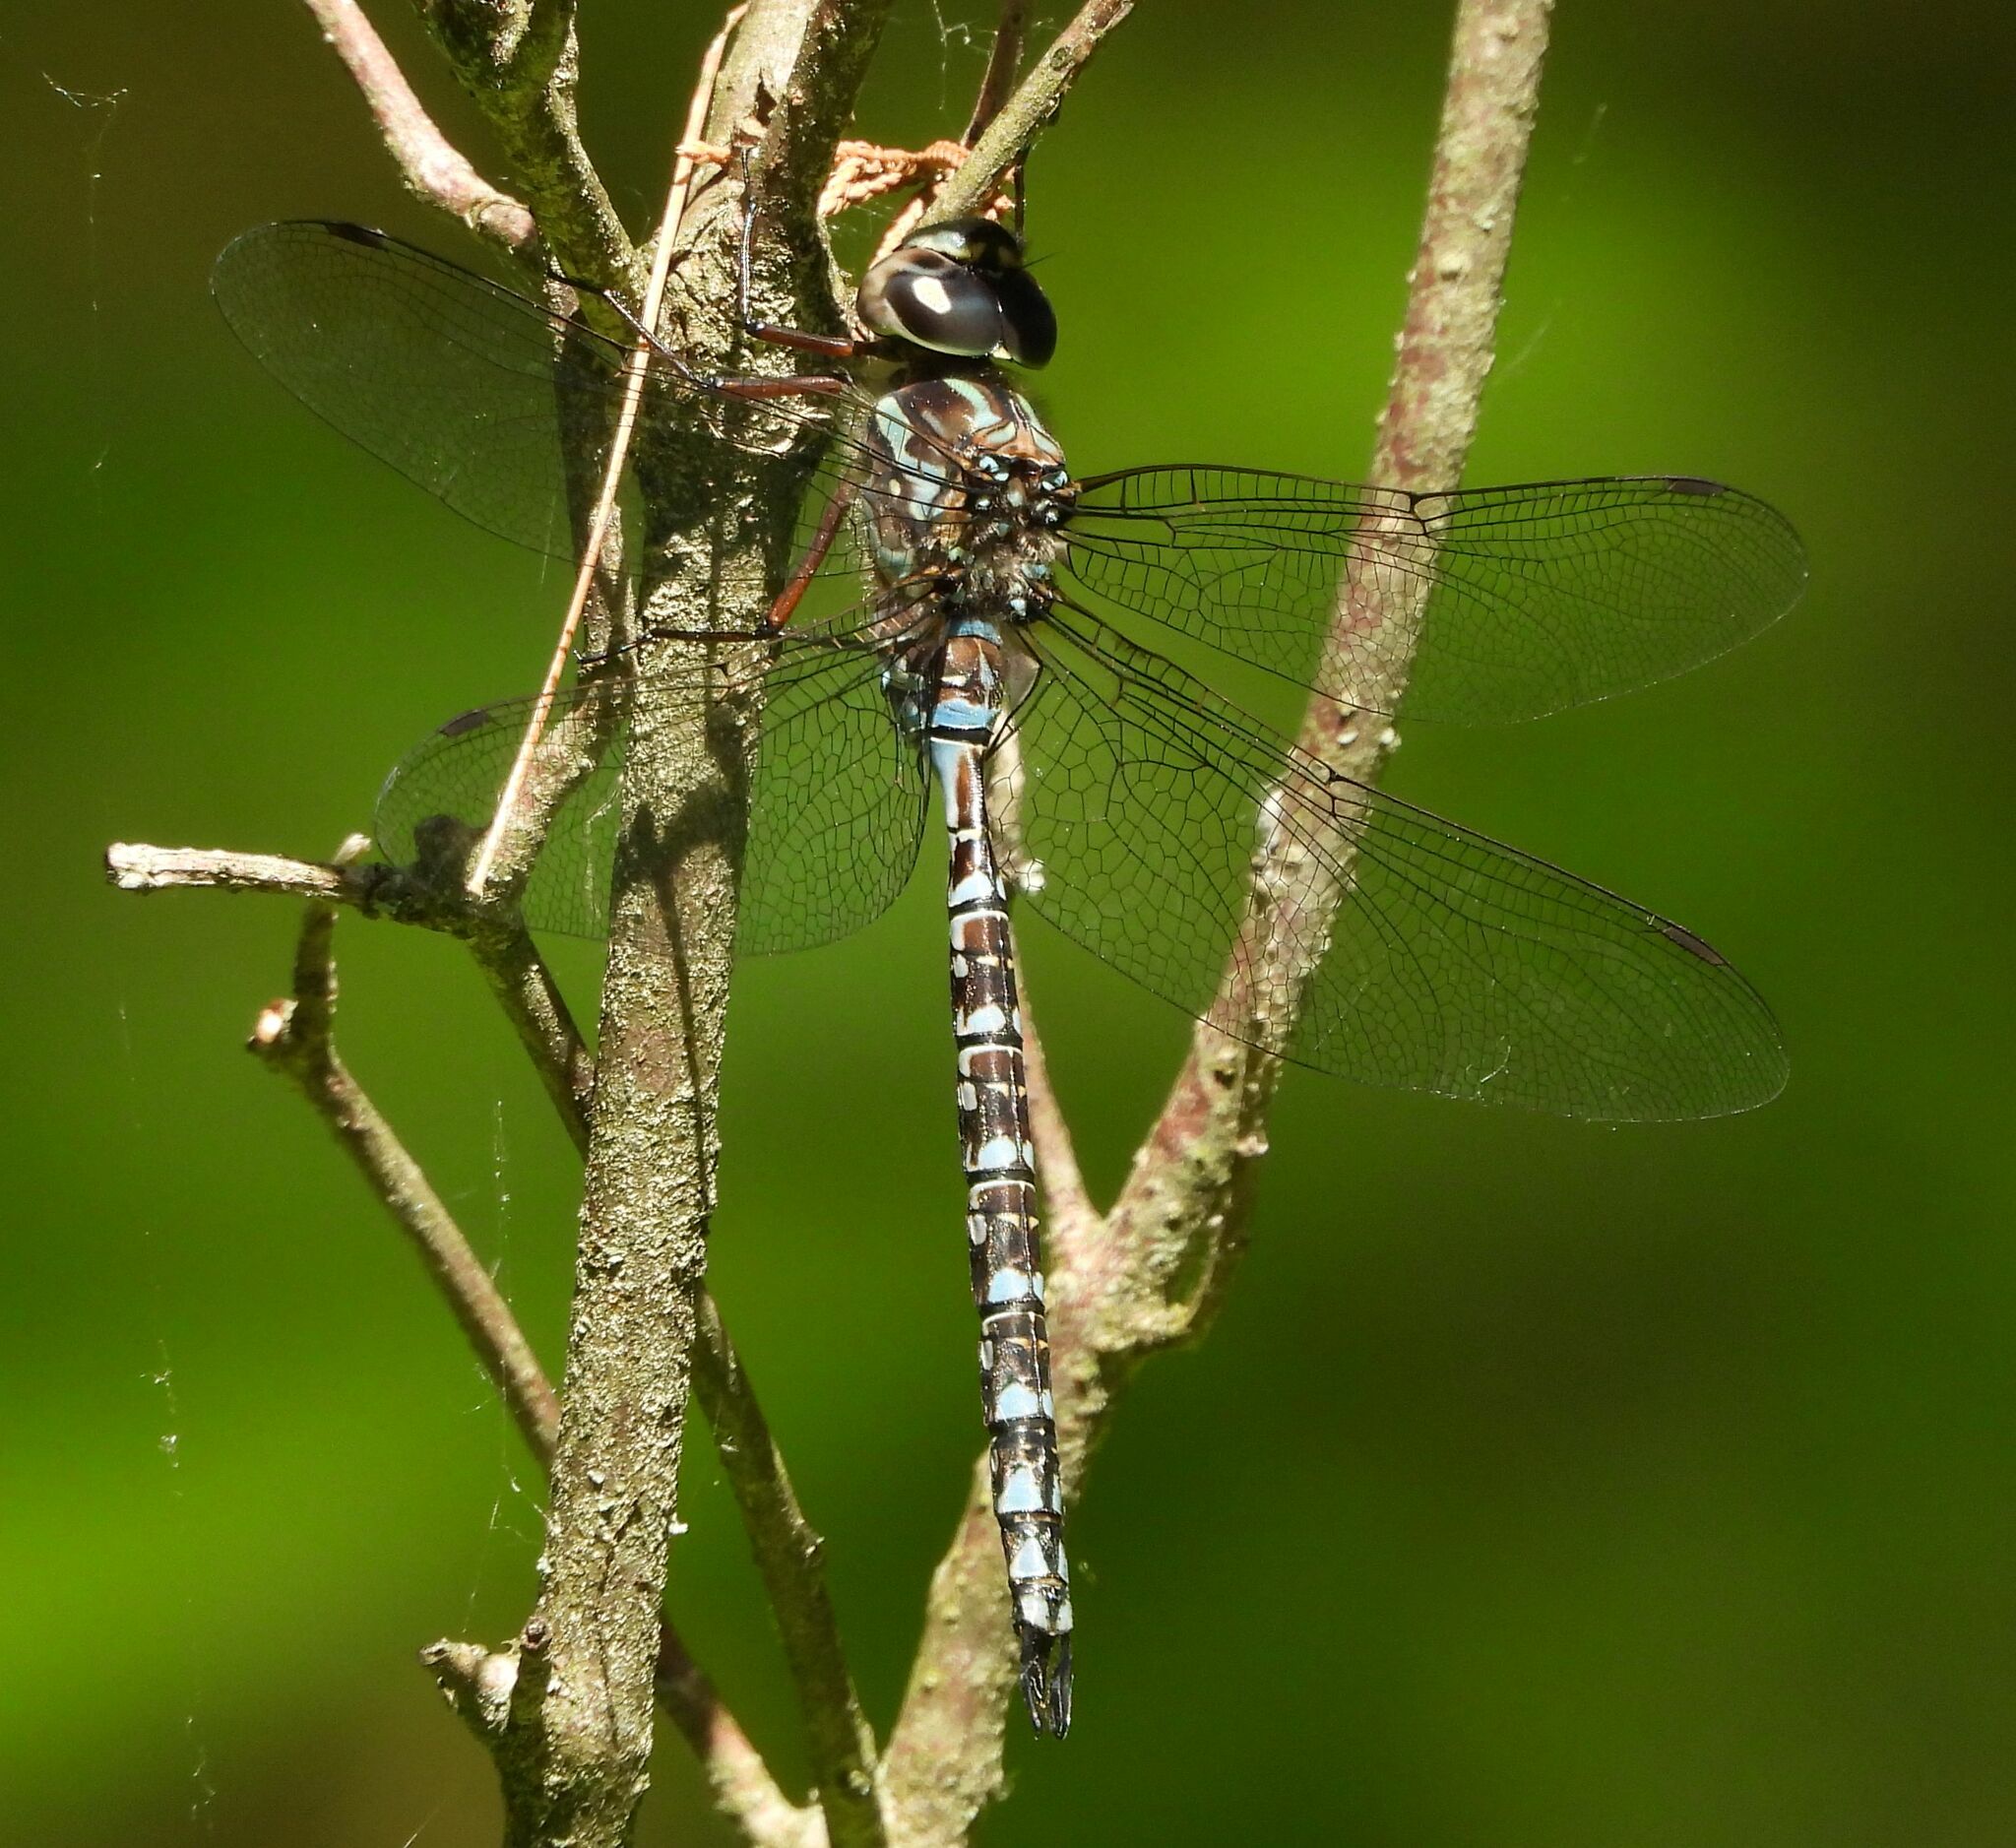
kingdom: Animalia
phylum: Arthropoda
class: Insecta
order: Odonata
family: Aeshnidae
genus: Aeshna
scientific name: Aeshna canadensis
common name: Canada darner
